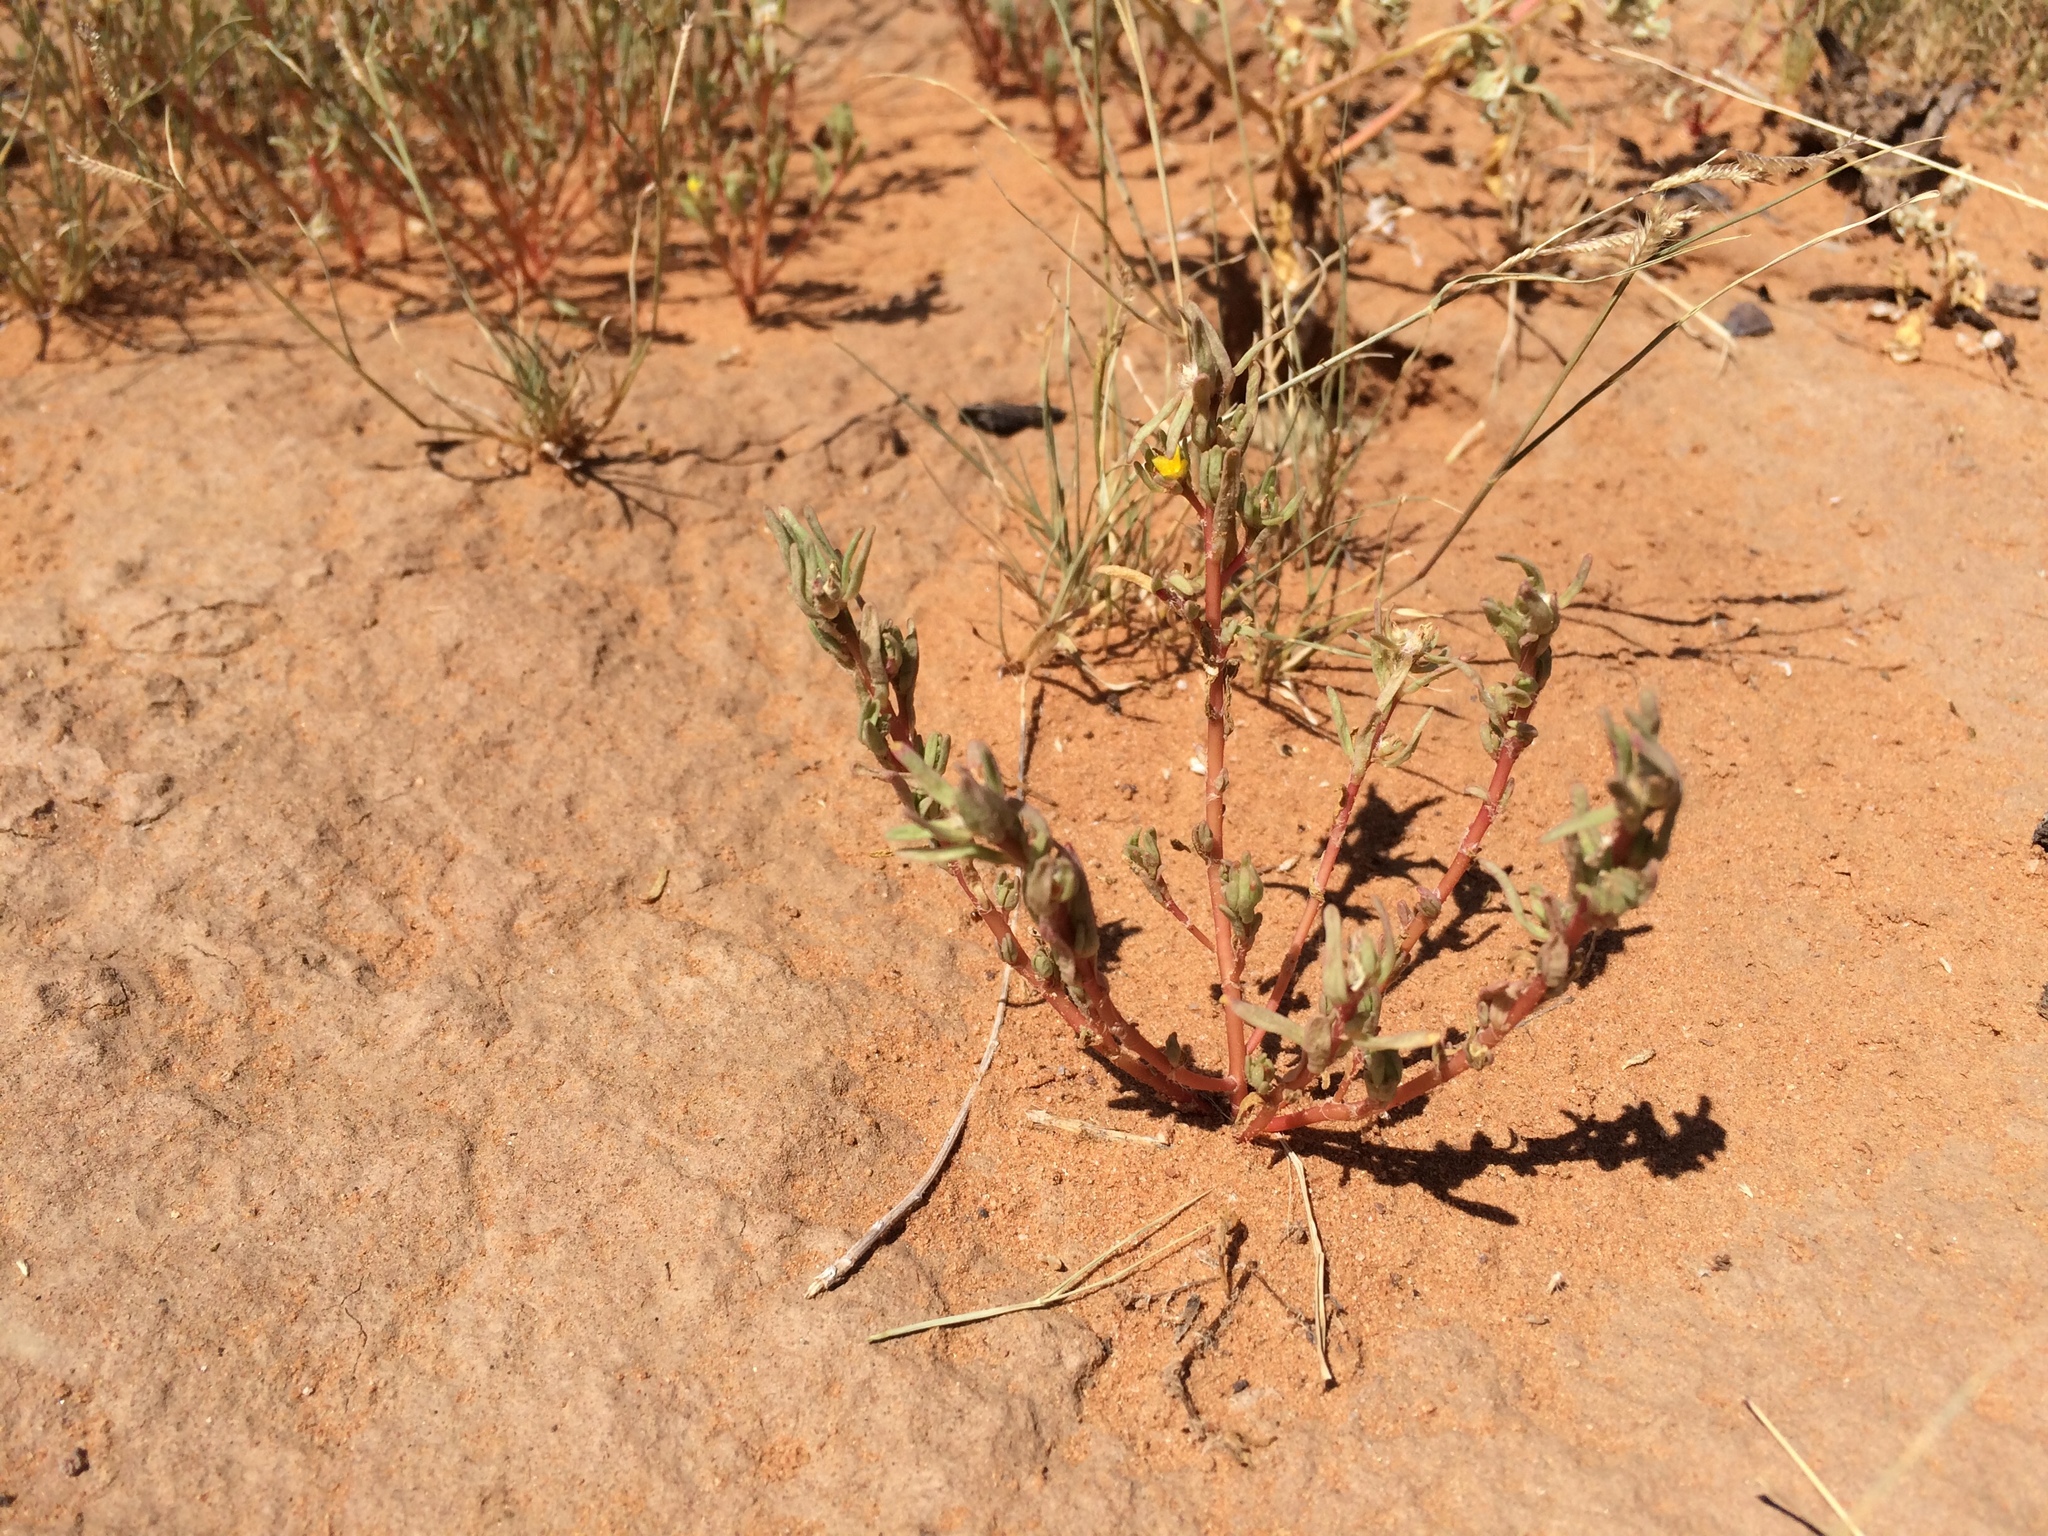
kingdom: Plantae
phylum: Tracheophyta
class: Magnoliopsida
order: Caryophyllales
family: Portulacaceae
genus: Portulaca
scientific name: Portulaca halimoides
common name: Silk cotton purslane
